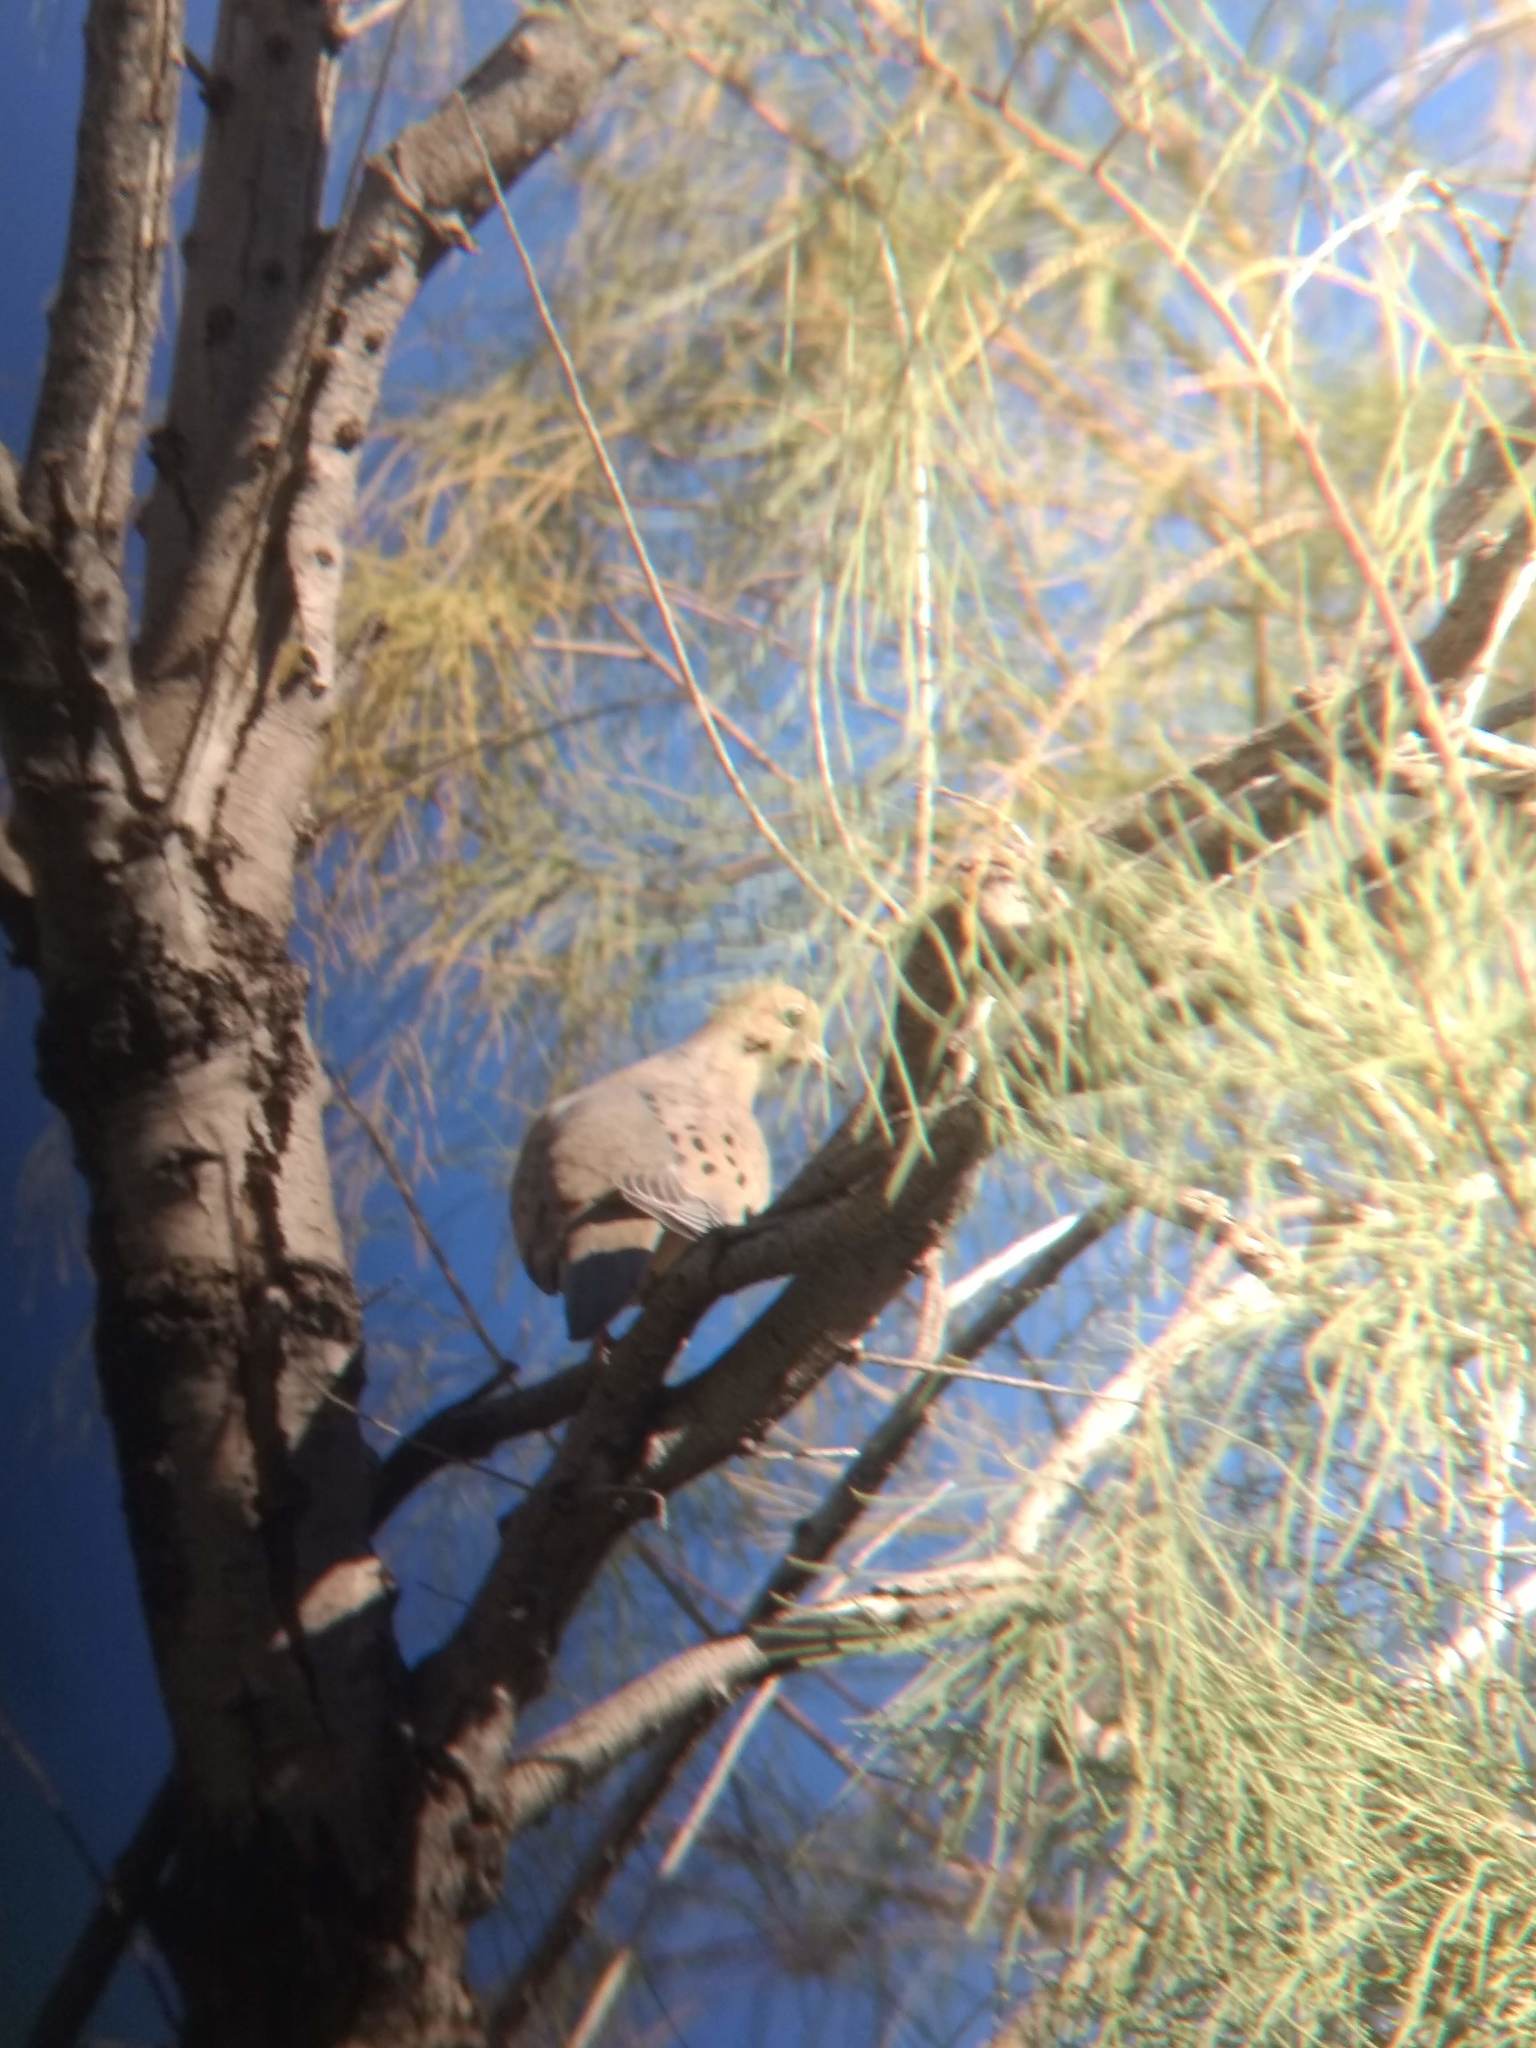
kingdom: Animalia
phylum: Chordata
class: Aves
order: Columbiformes
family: Columbidae
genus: Zenaida
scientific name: Zenaida macroura
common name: Mourning dove
